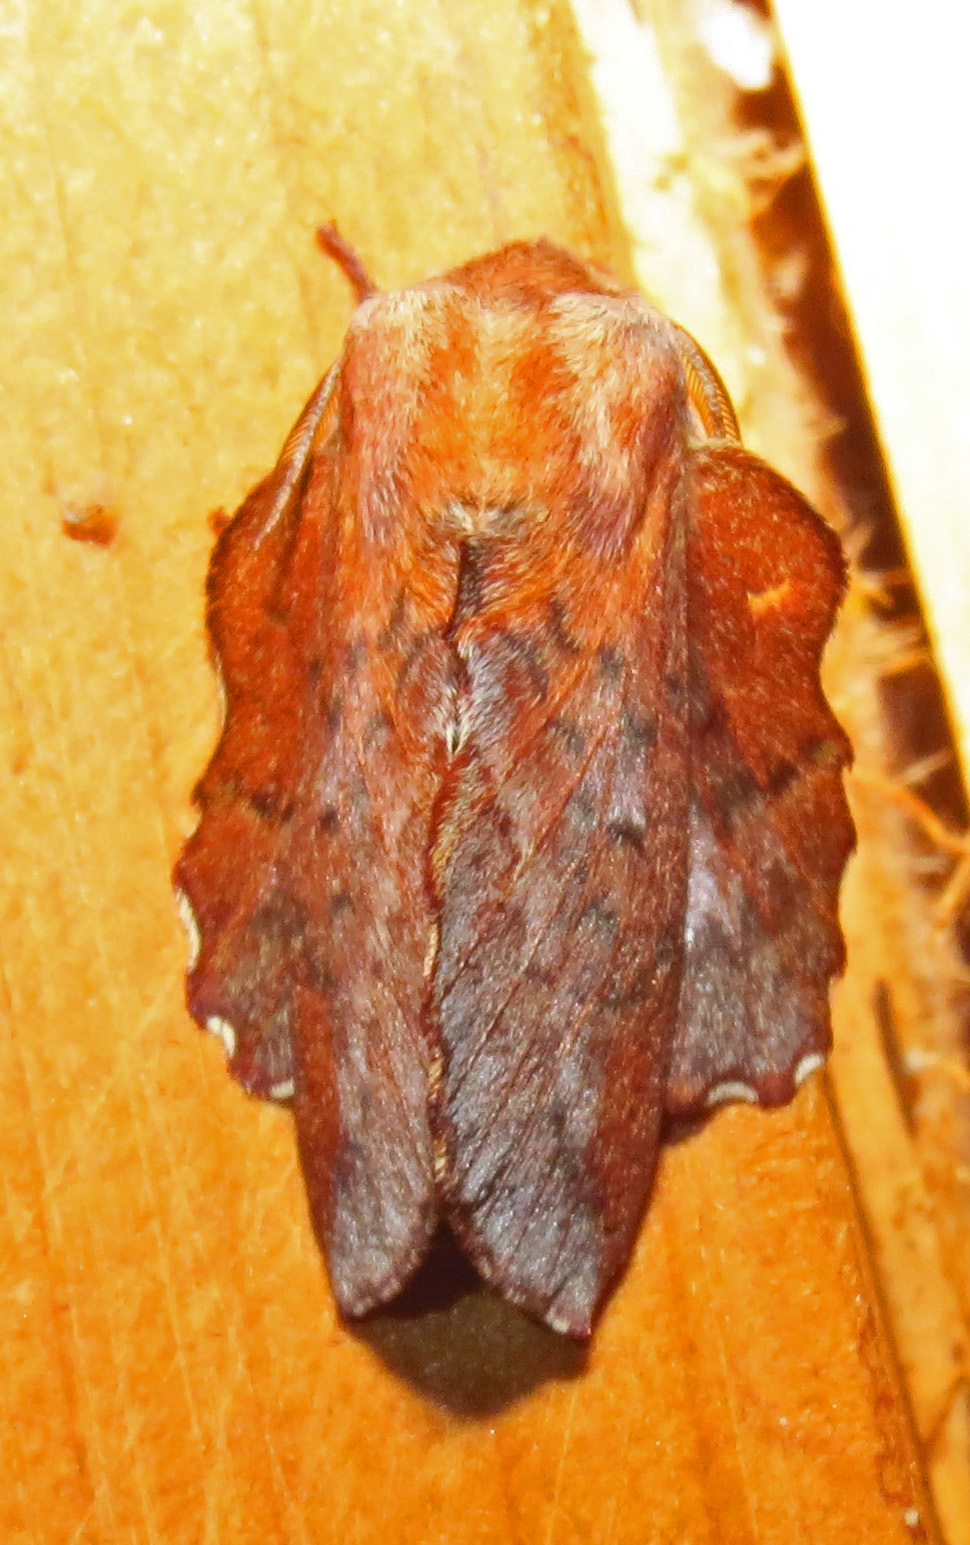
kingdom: Animalia
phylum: Arthropoda
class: Insecta
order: Lepidoptera
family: Lasiocampidae
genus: Phyllodesma
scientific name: Phyllodesma americana
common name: American lappet moth
